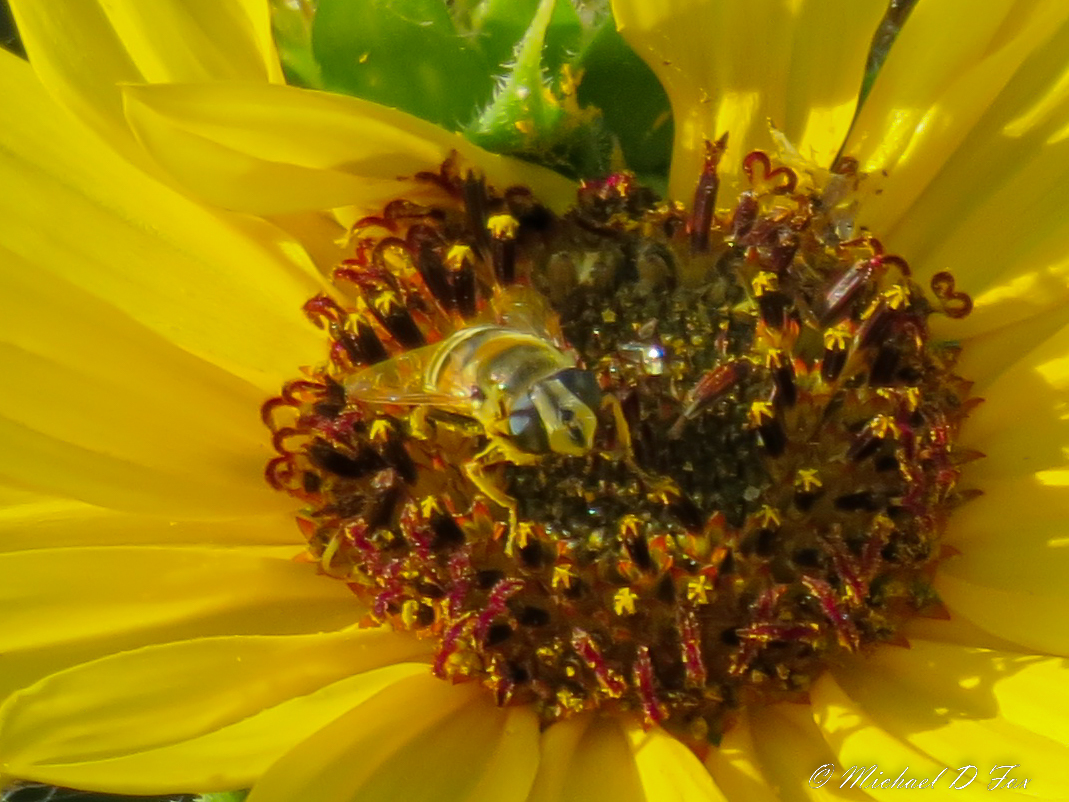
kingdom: Animalia
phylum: Arthropoda
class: Insecta
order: Diptera
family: Syrphidae
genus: Eristalis
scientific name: Eristalis stipator
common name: Yellow-shouldered drone fly
